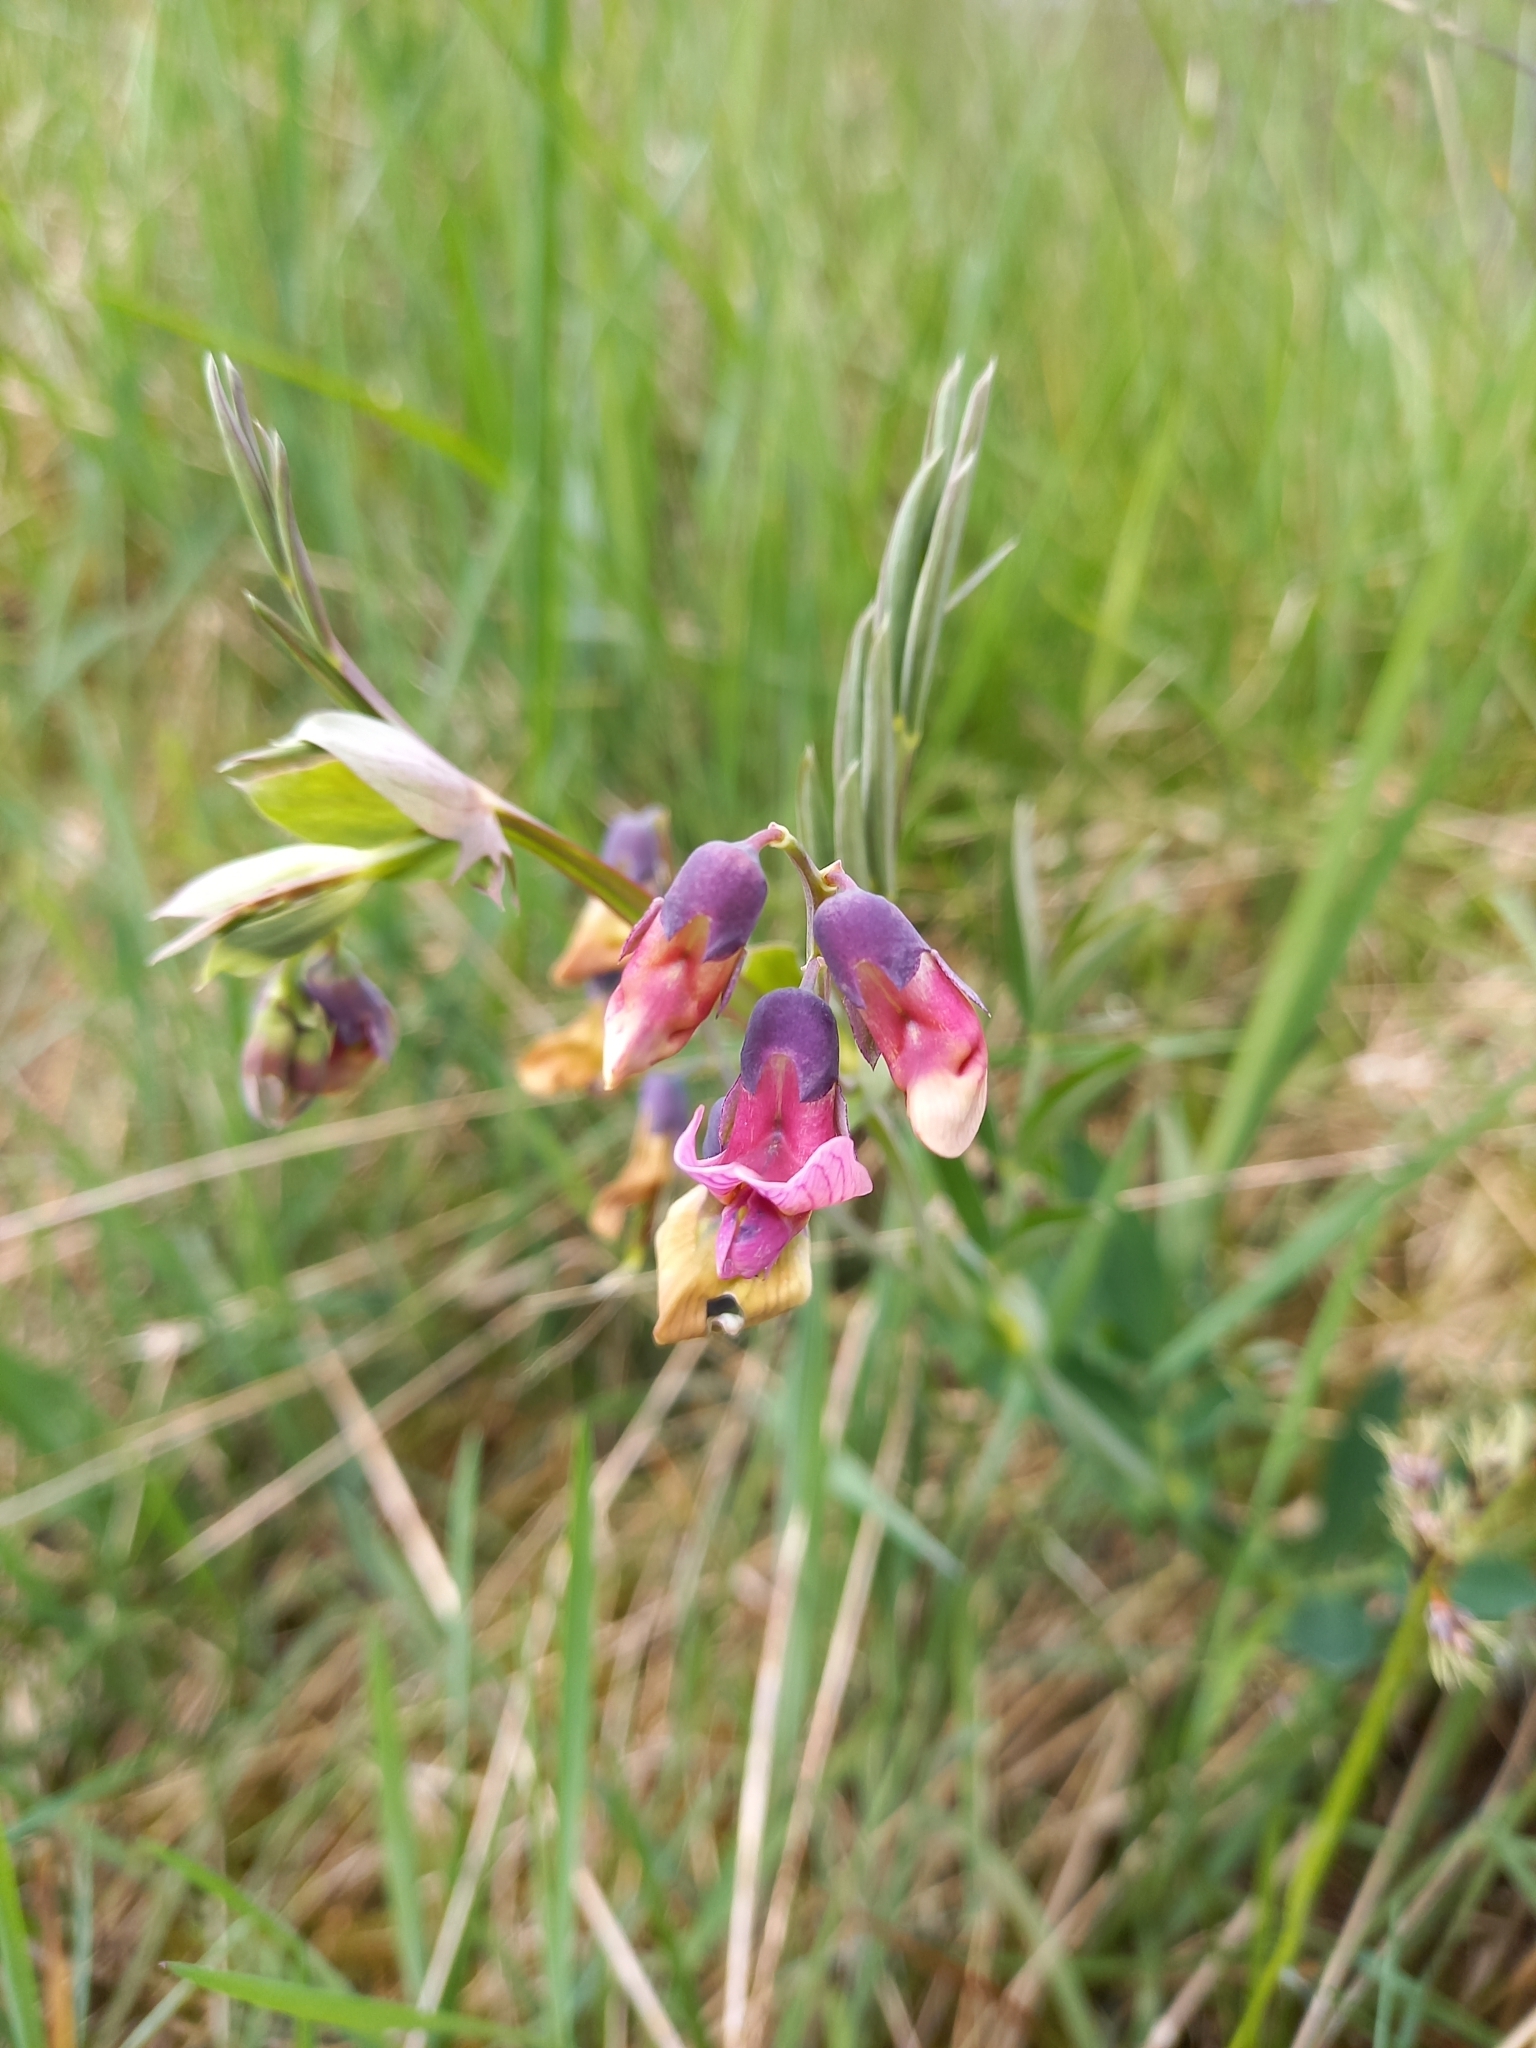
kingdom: Plantae
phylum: Tracheophyta
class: Magnoliopsida
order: Fabales
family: Fabaceae
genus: Lathyrus
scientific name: Lathyrus linifolius
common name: Bitter-vetch
